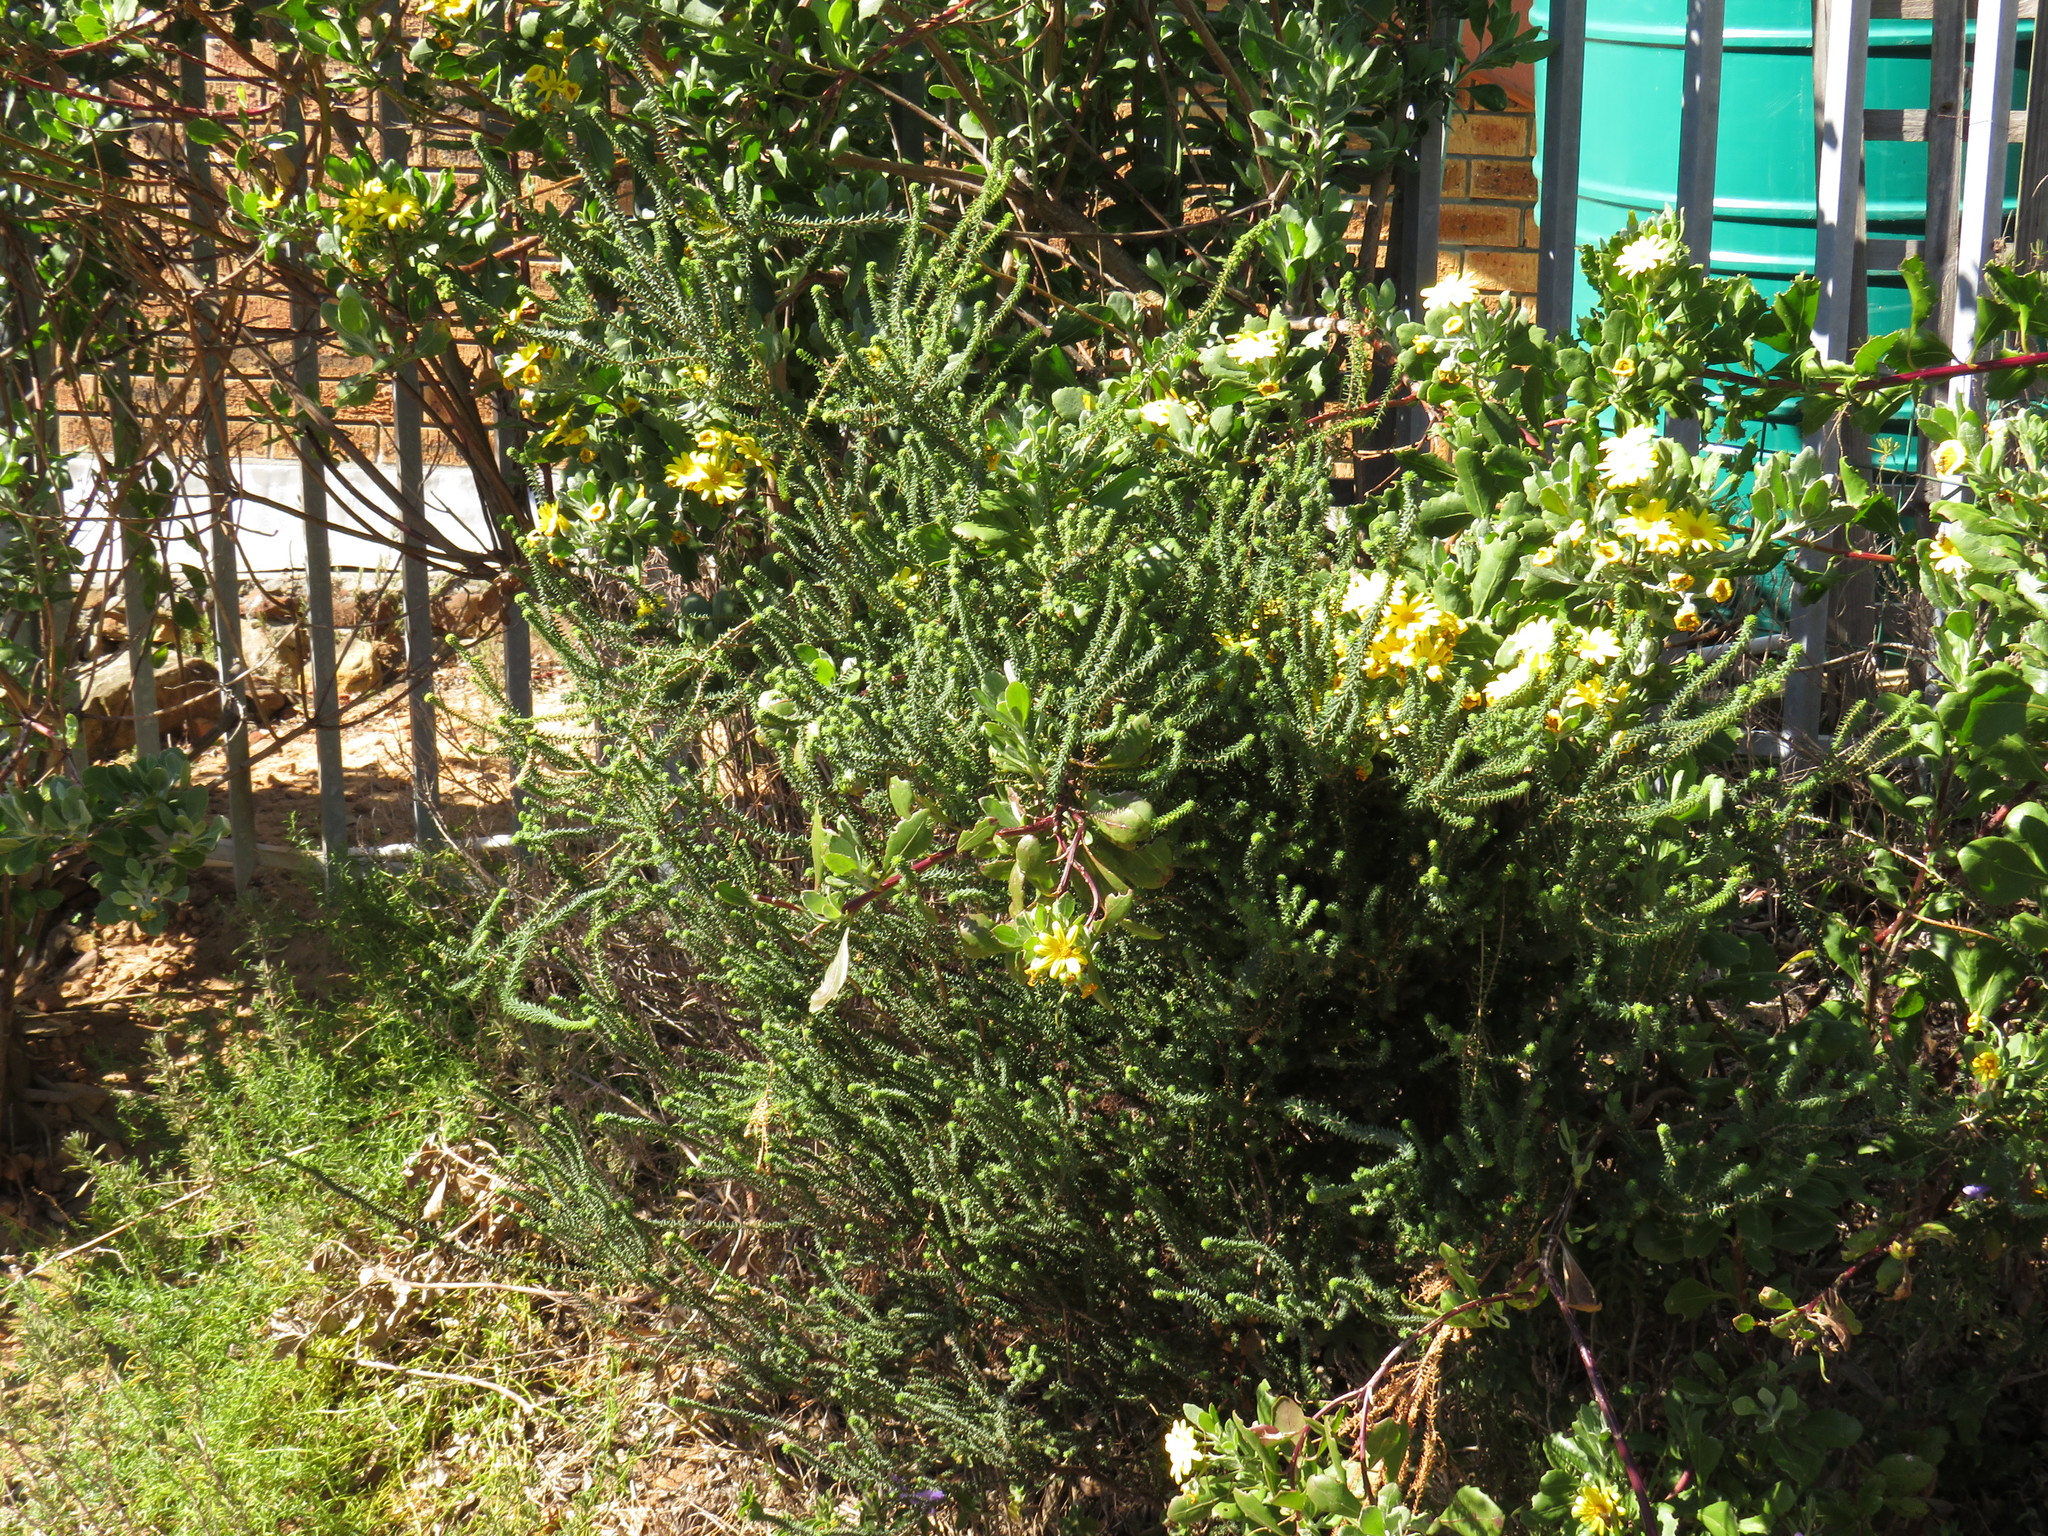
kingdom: Plantae
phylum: Tracheophyta
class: Magnoliopsida
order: Sapindales
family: Rutaceae
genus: Agathosma
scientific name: Agathosma apiculata
